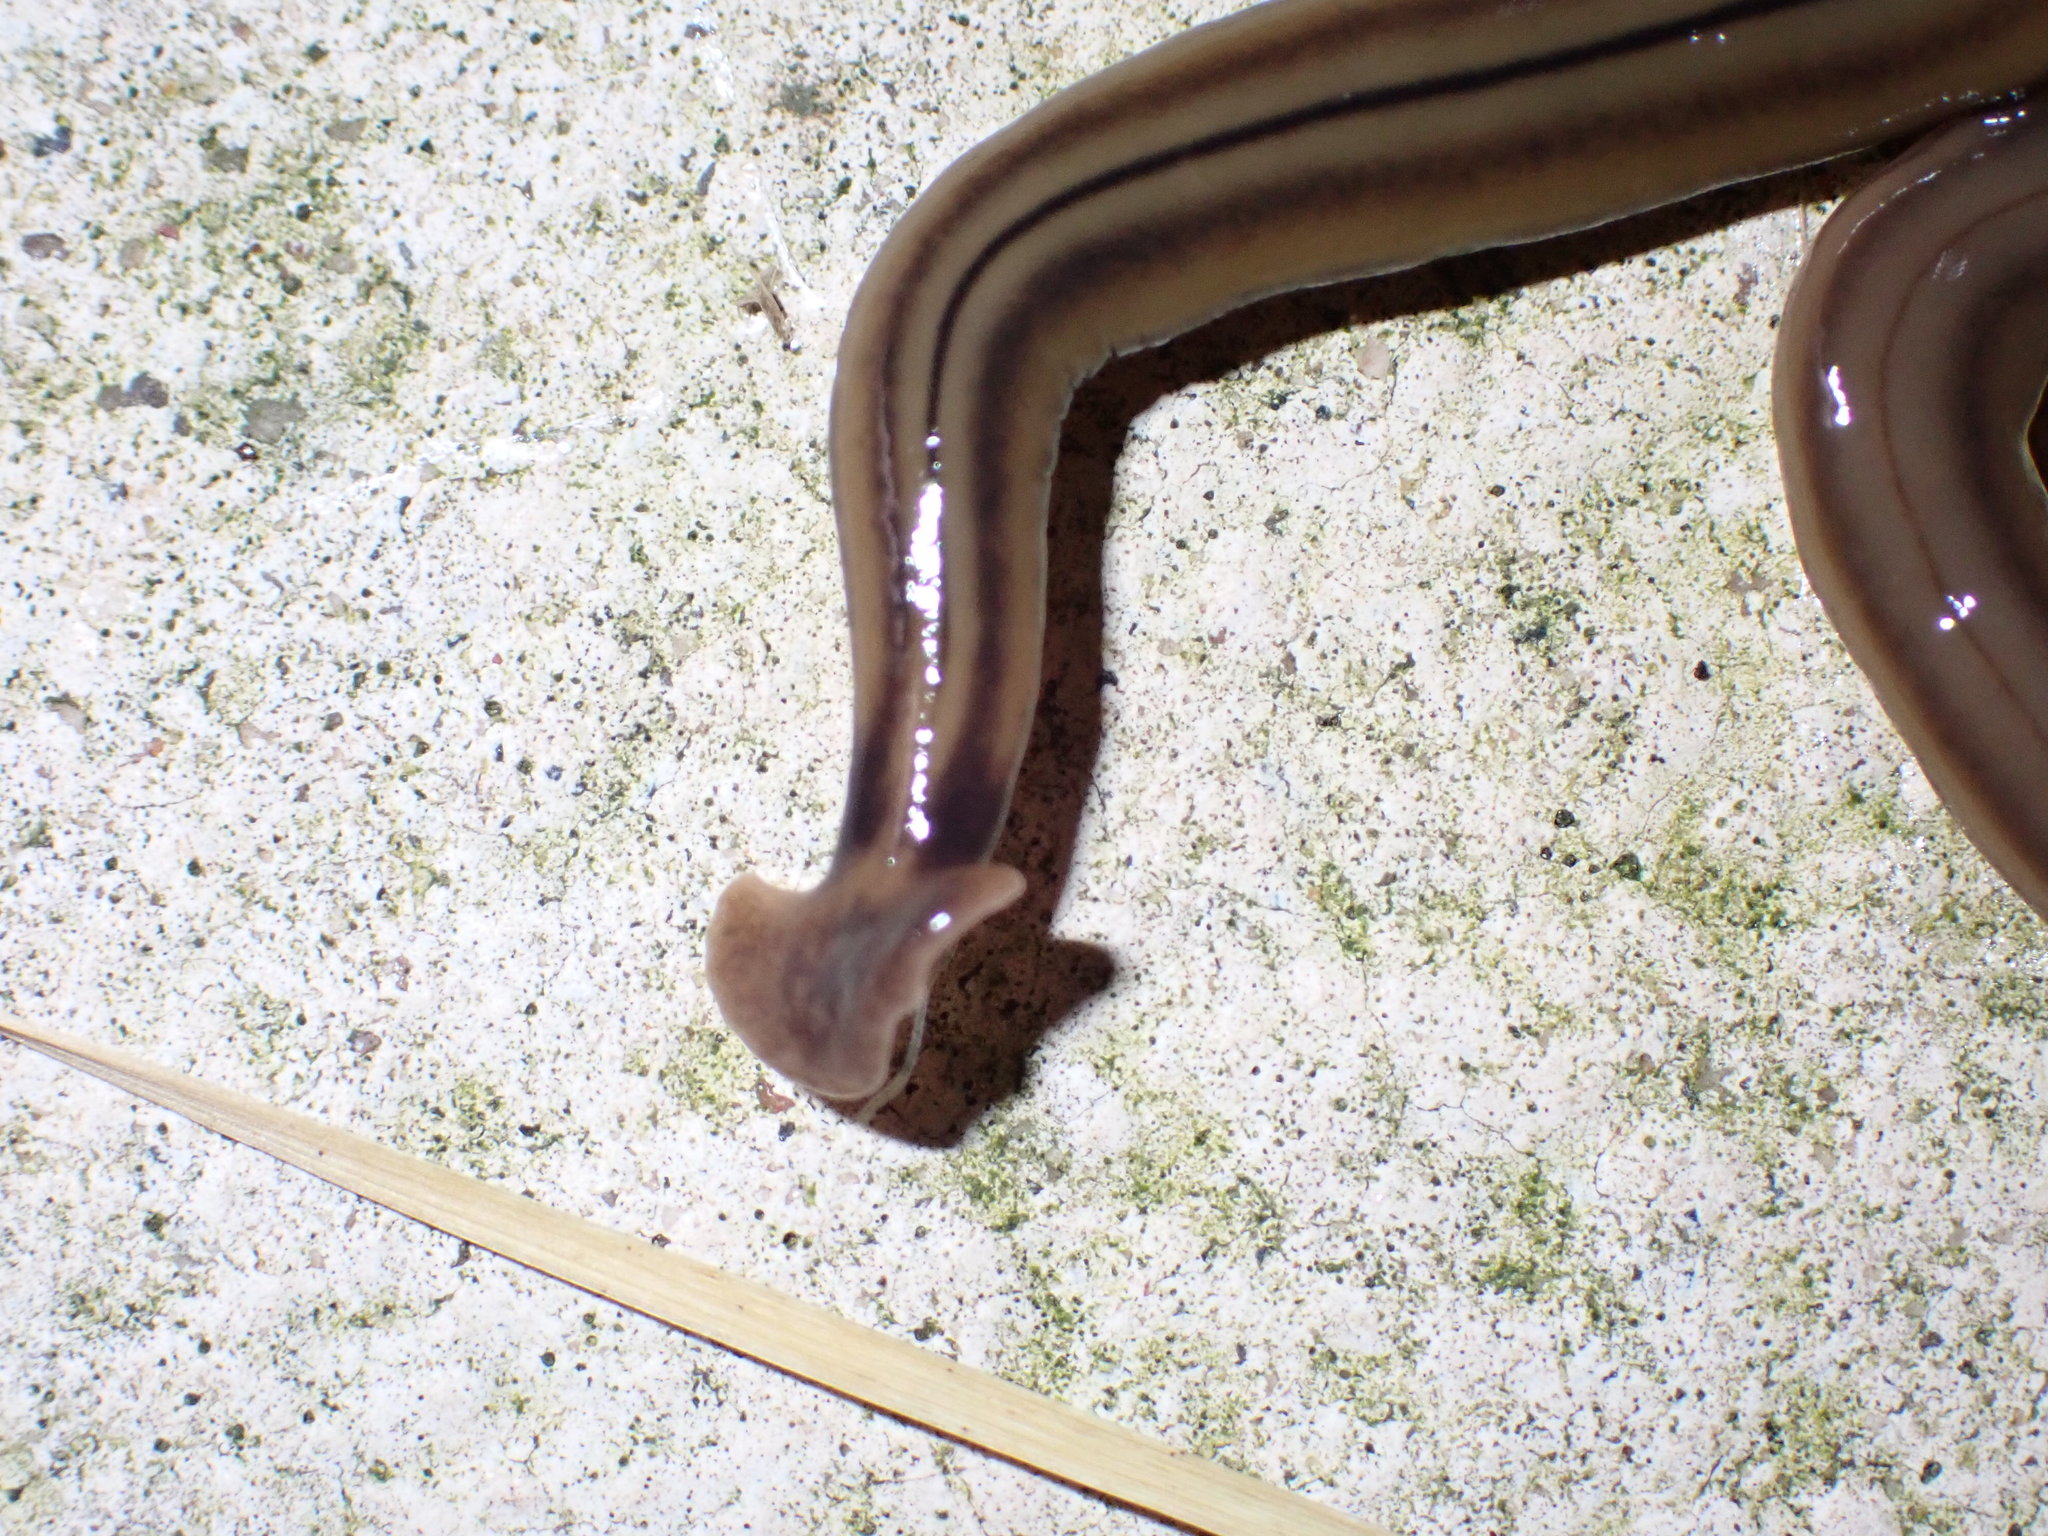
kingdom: Animalia
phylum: Platyhelminthes
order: Tricladida
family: Geoplanidae
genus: Bipalium
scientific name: Bipalium kewense
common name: Hammerhead flatworm
